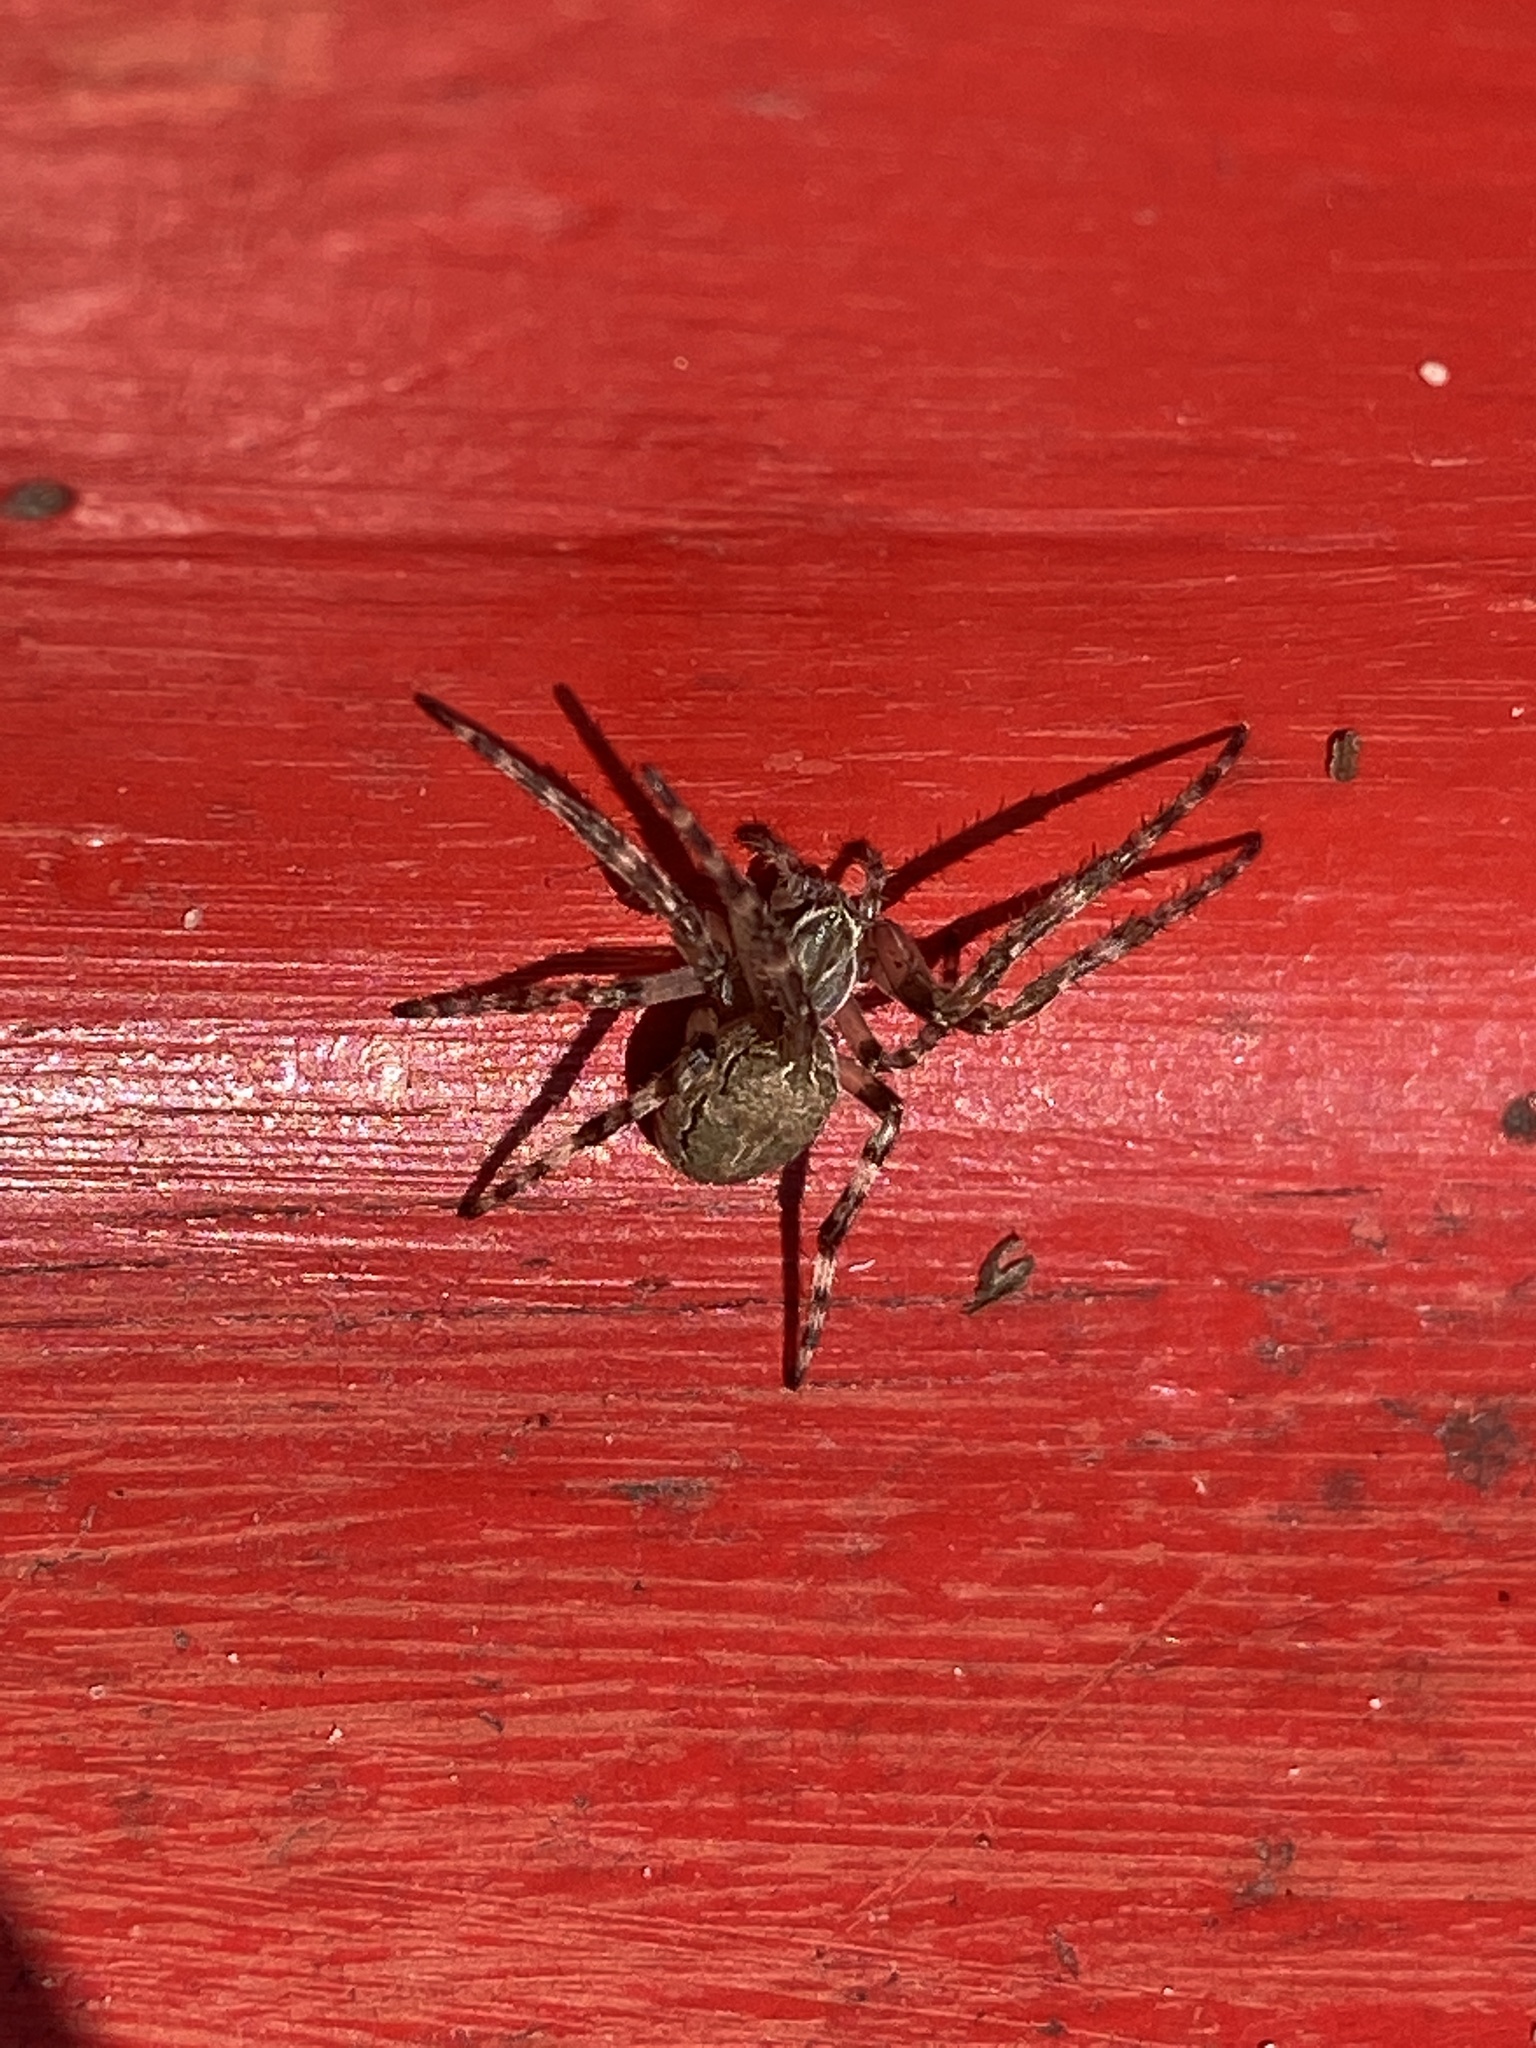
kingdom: Animalia
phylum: Arthropoda
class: Arachnida
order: Araneae
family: Araneidae
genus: Larinioides
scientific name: Larinioides sclopetarius
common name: Bridge orbweaver
